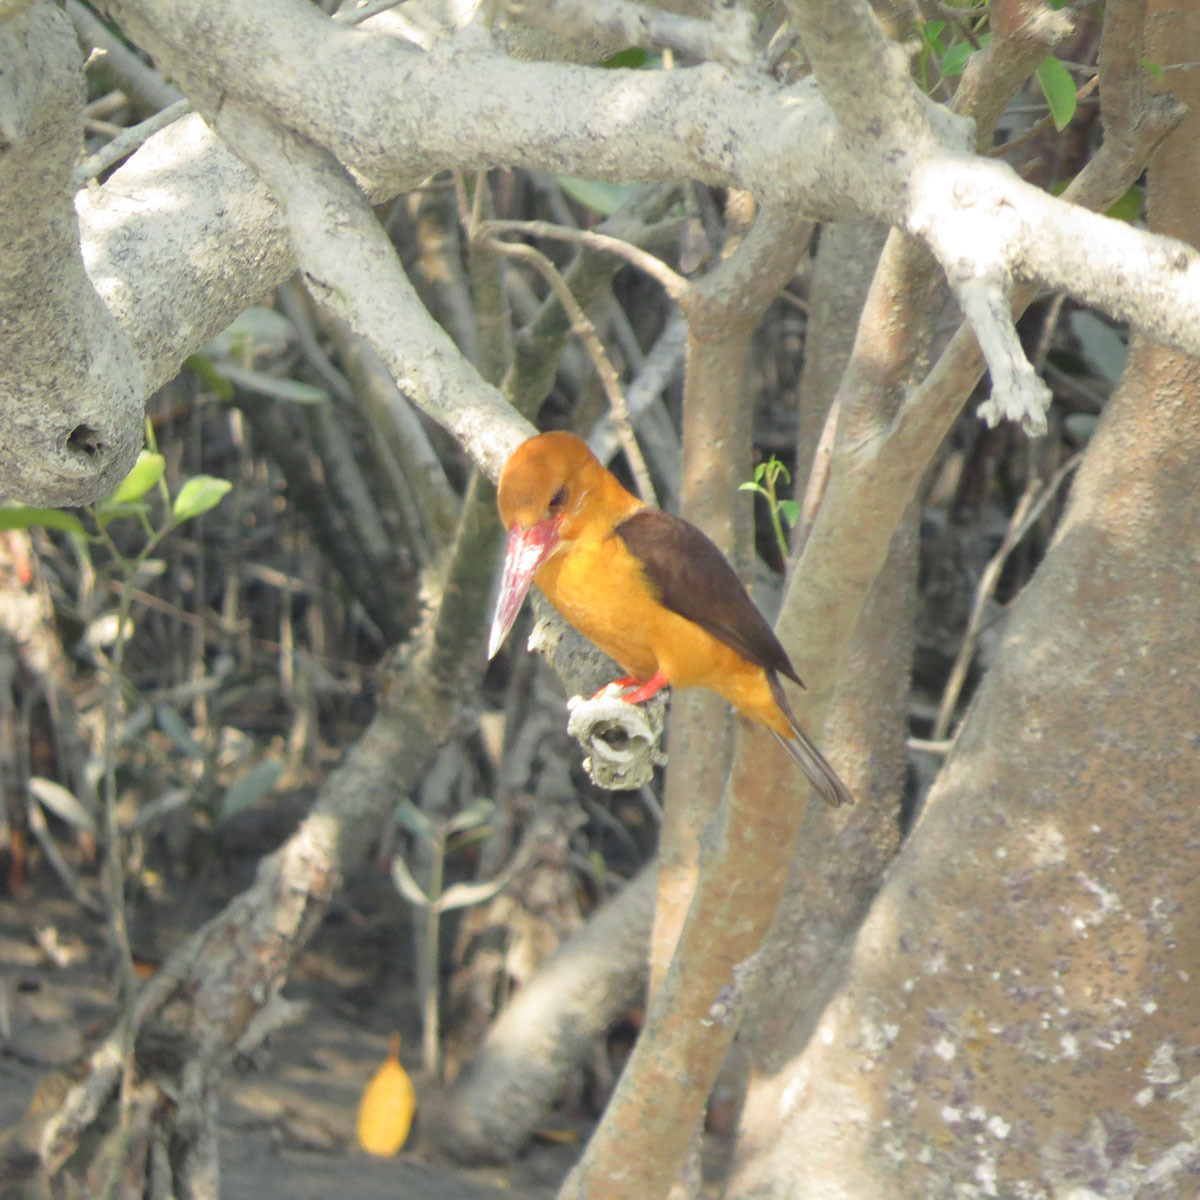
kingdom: Animalia
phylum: Chordata
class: Aves
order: Coraciiformes
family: Alcedinidae
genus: Pelargopsis
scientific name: Pelargopsis amauroptera
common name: Brown-winged kingfisher
